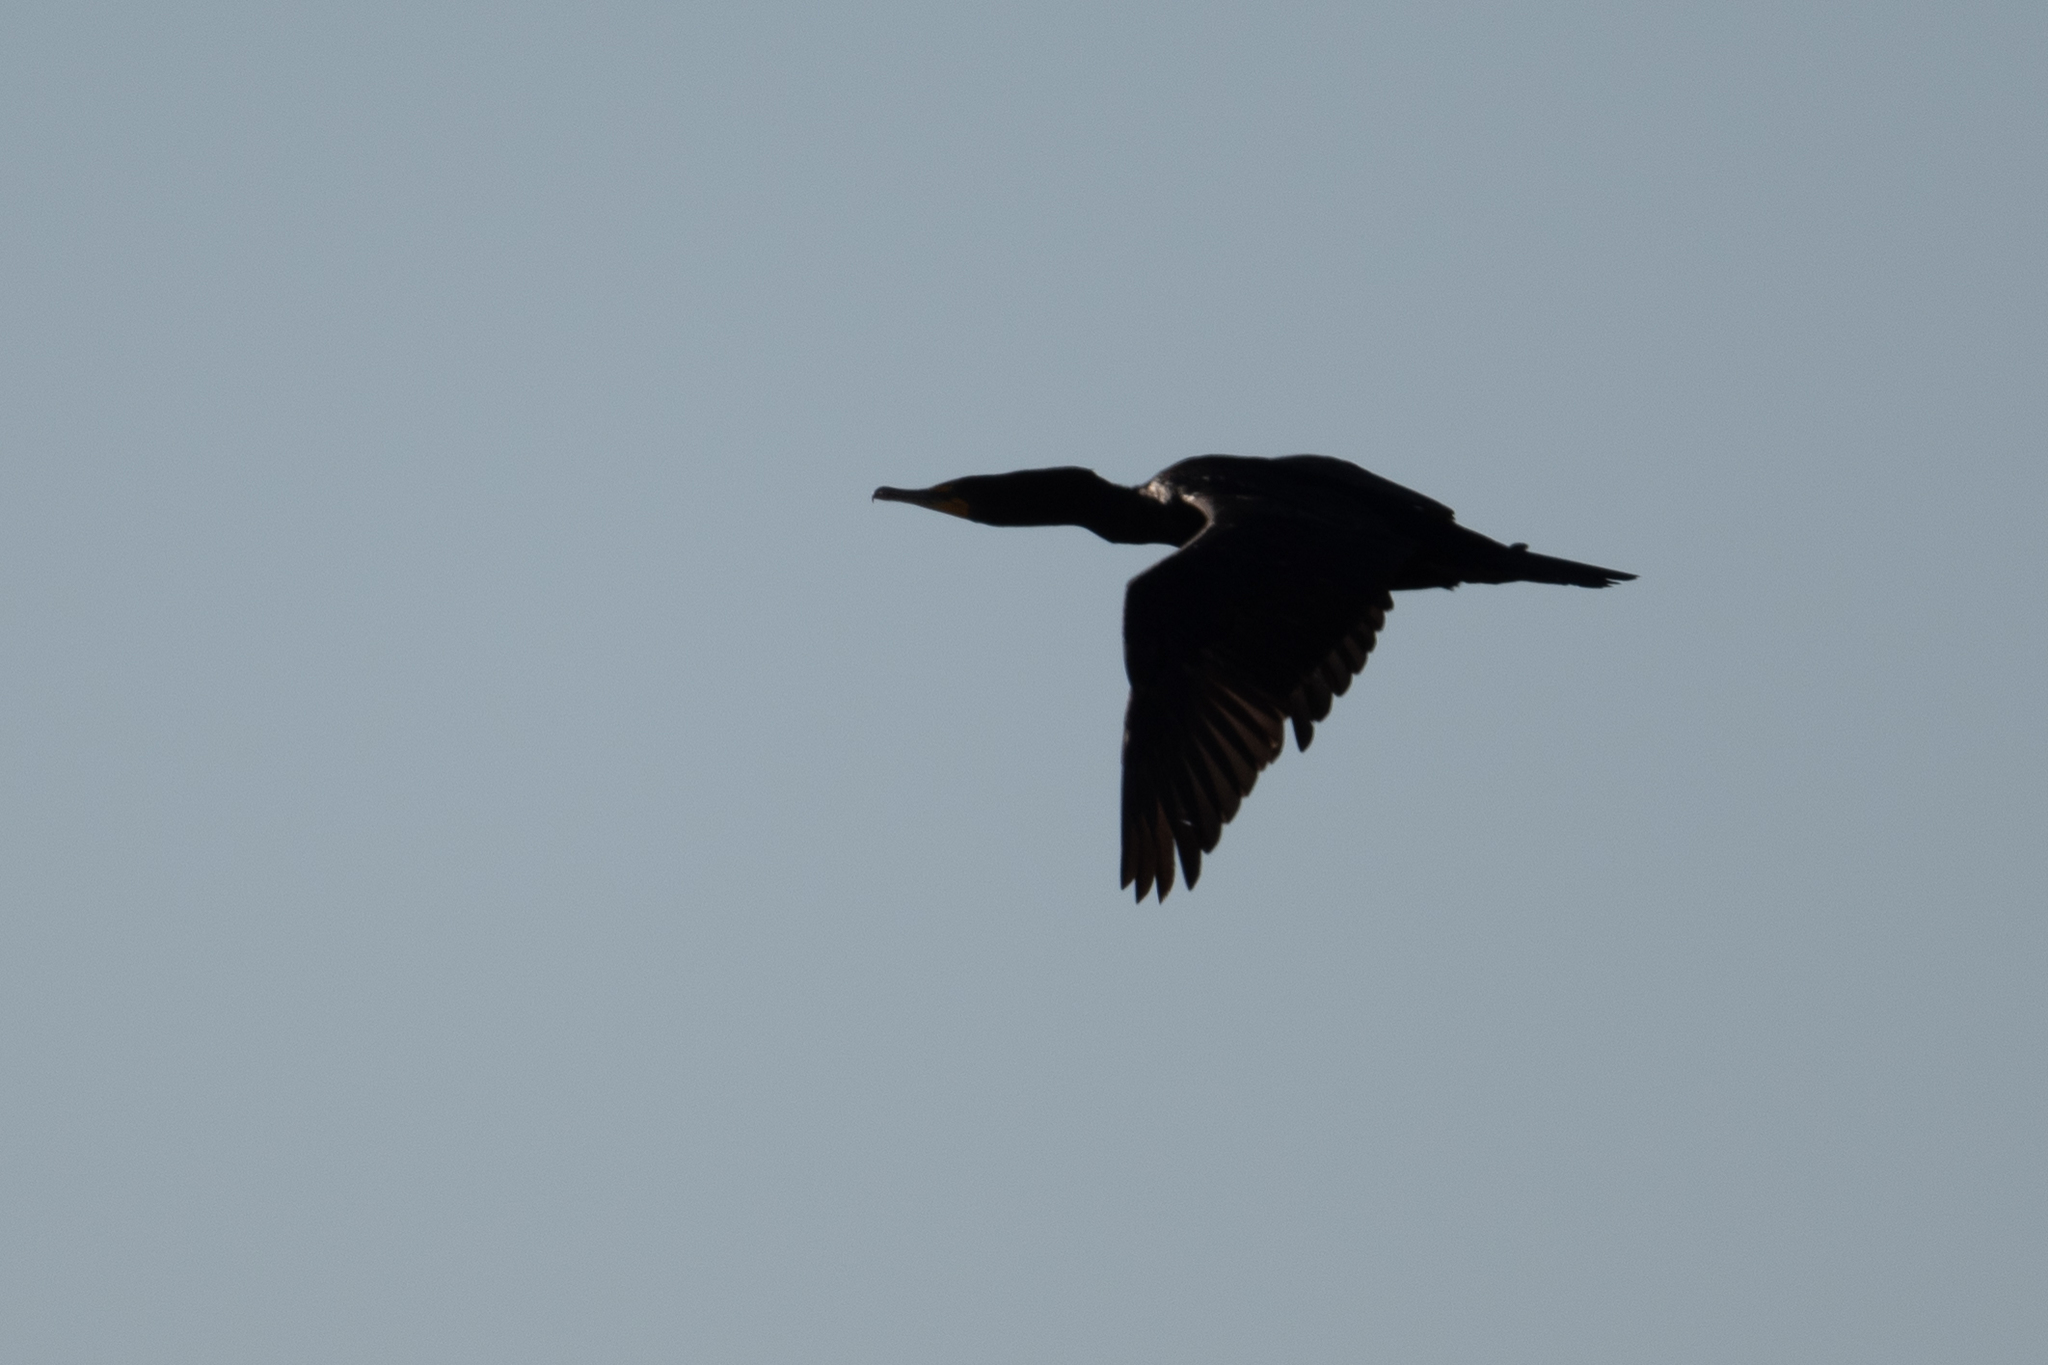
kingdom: Animalia
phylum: Chordata
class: Aves
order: Suliformes
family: Phalacrocoracidae
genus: Phalacrocorax
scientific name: Phalacrocorax auritus
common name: Double-crested cormorant
